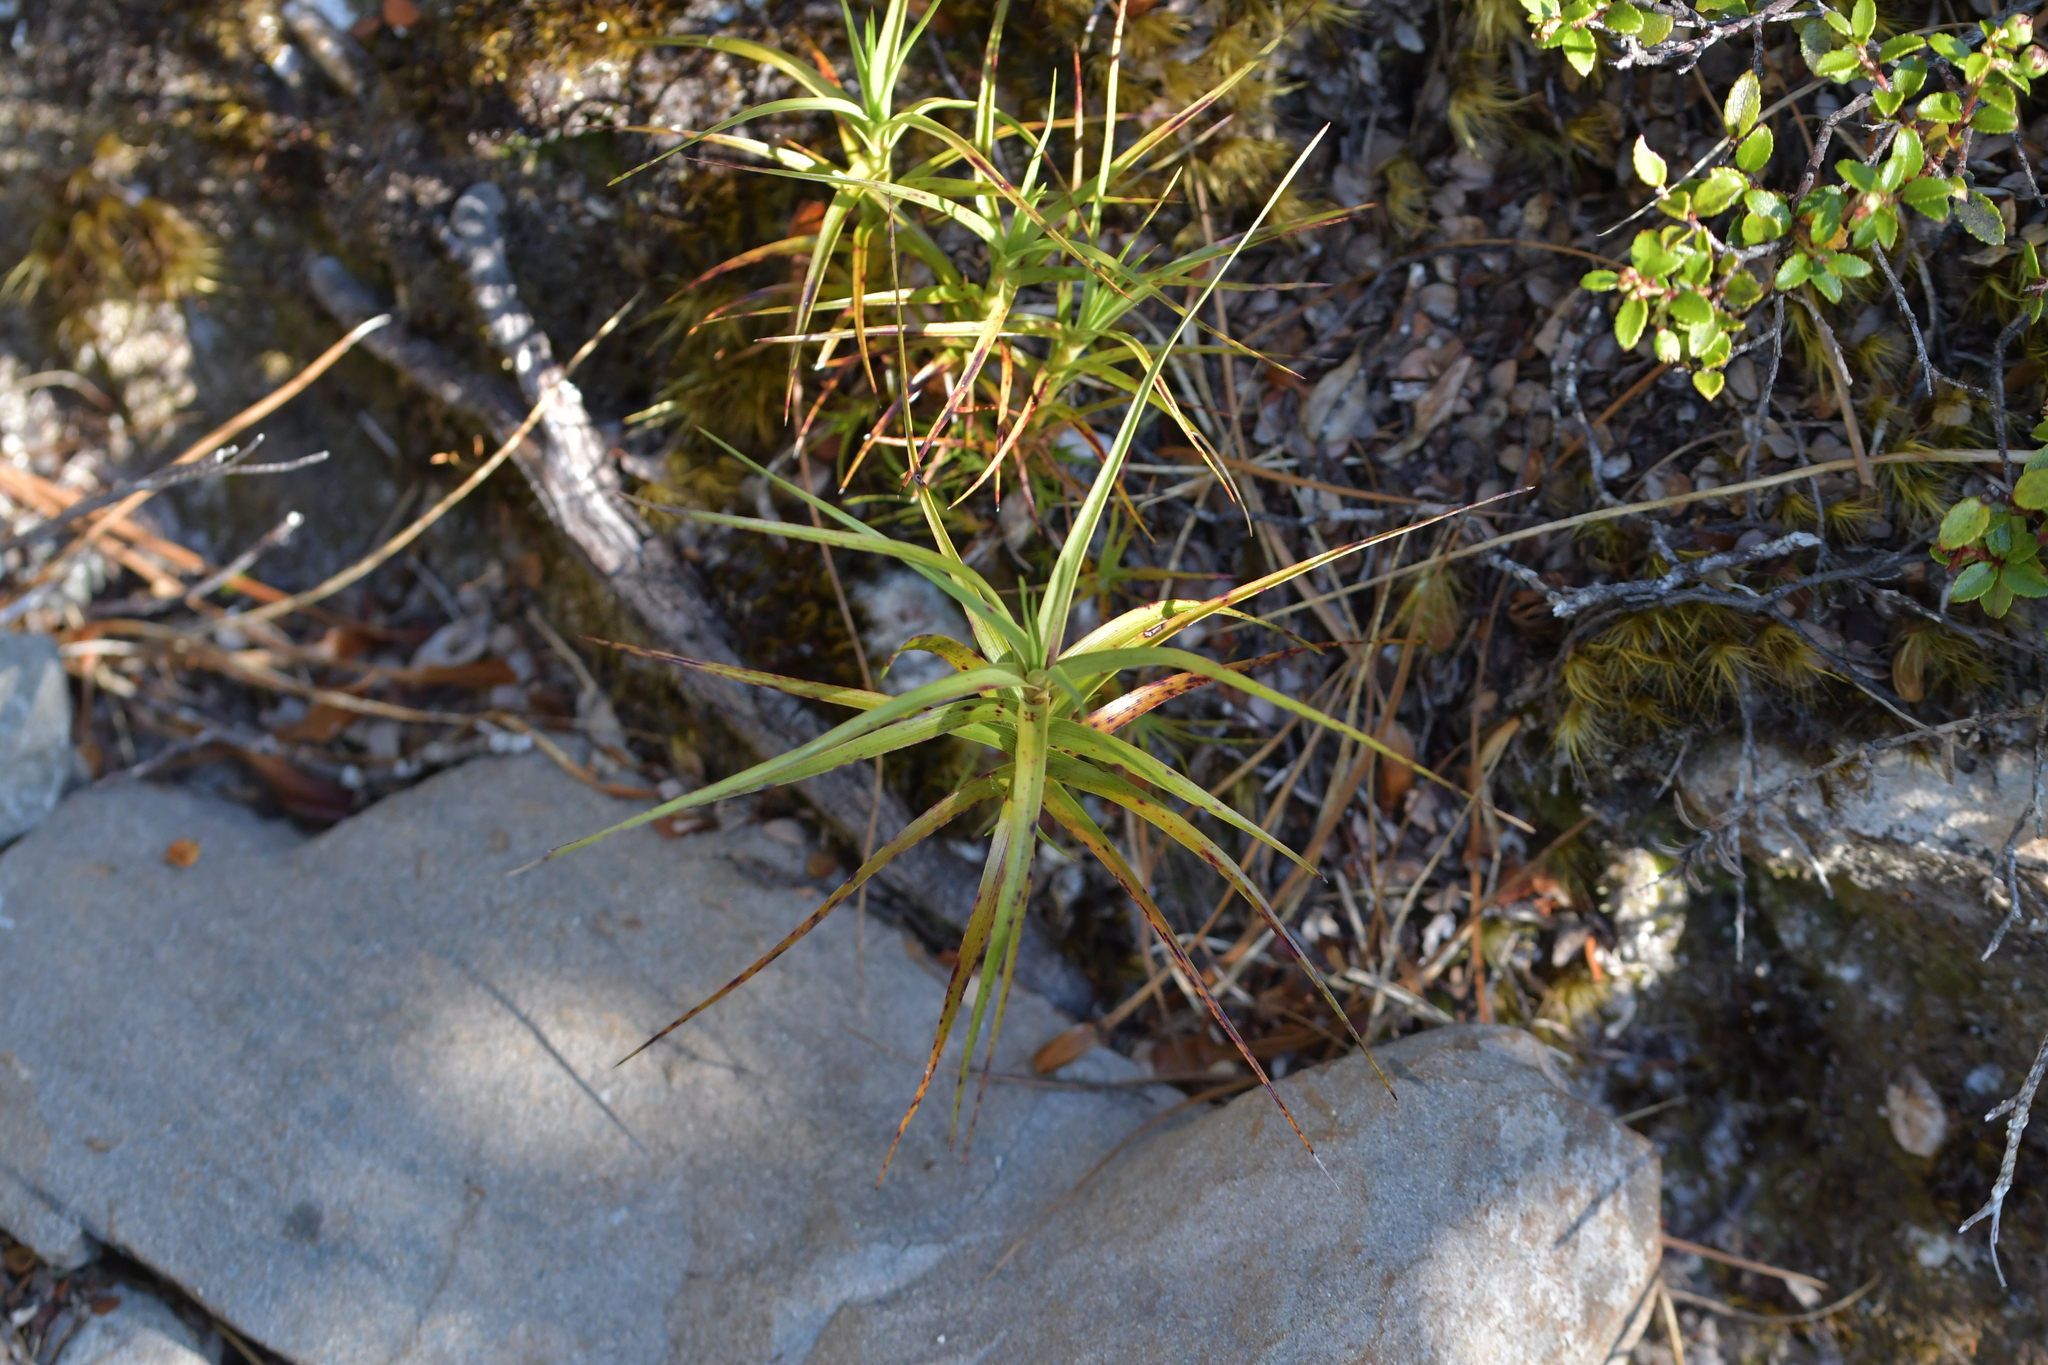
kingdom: Plantae
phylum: Tracheophyta
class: Magnoliopsida
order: Ericales
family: Ericaceae
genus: Dracophyllum
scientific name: Dracophyllum longifolium
